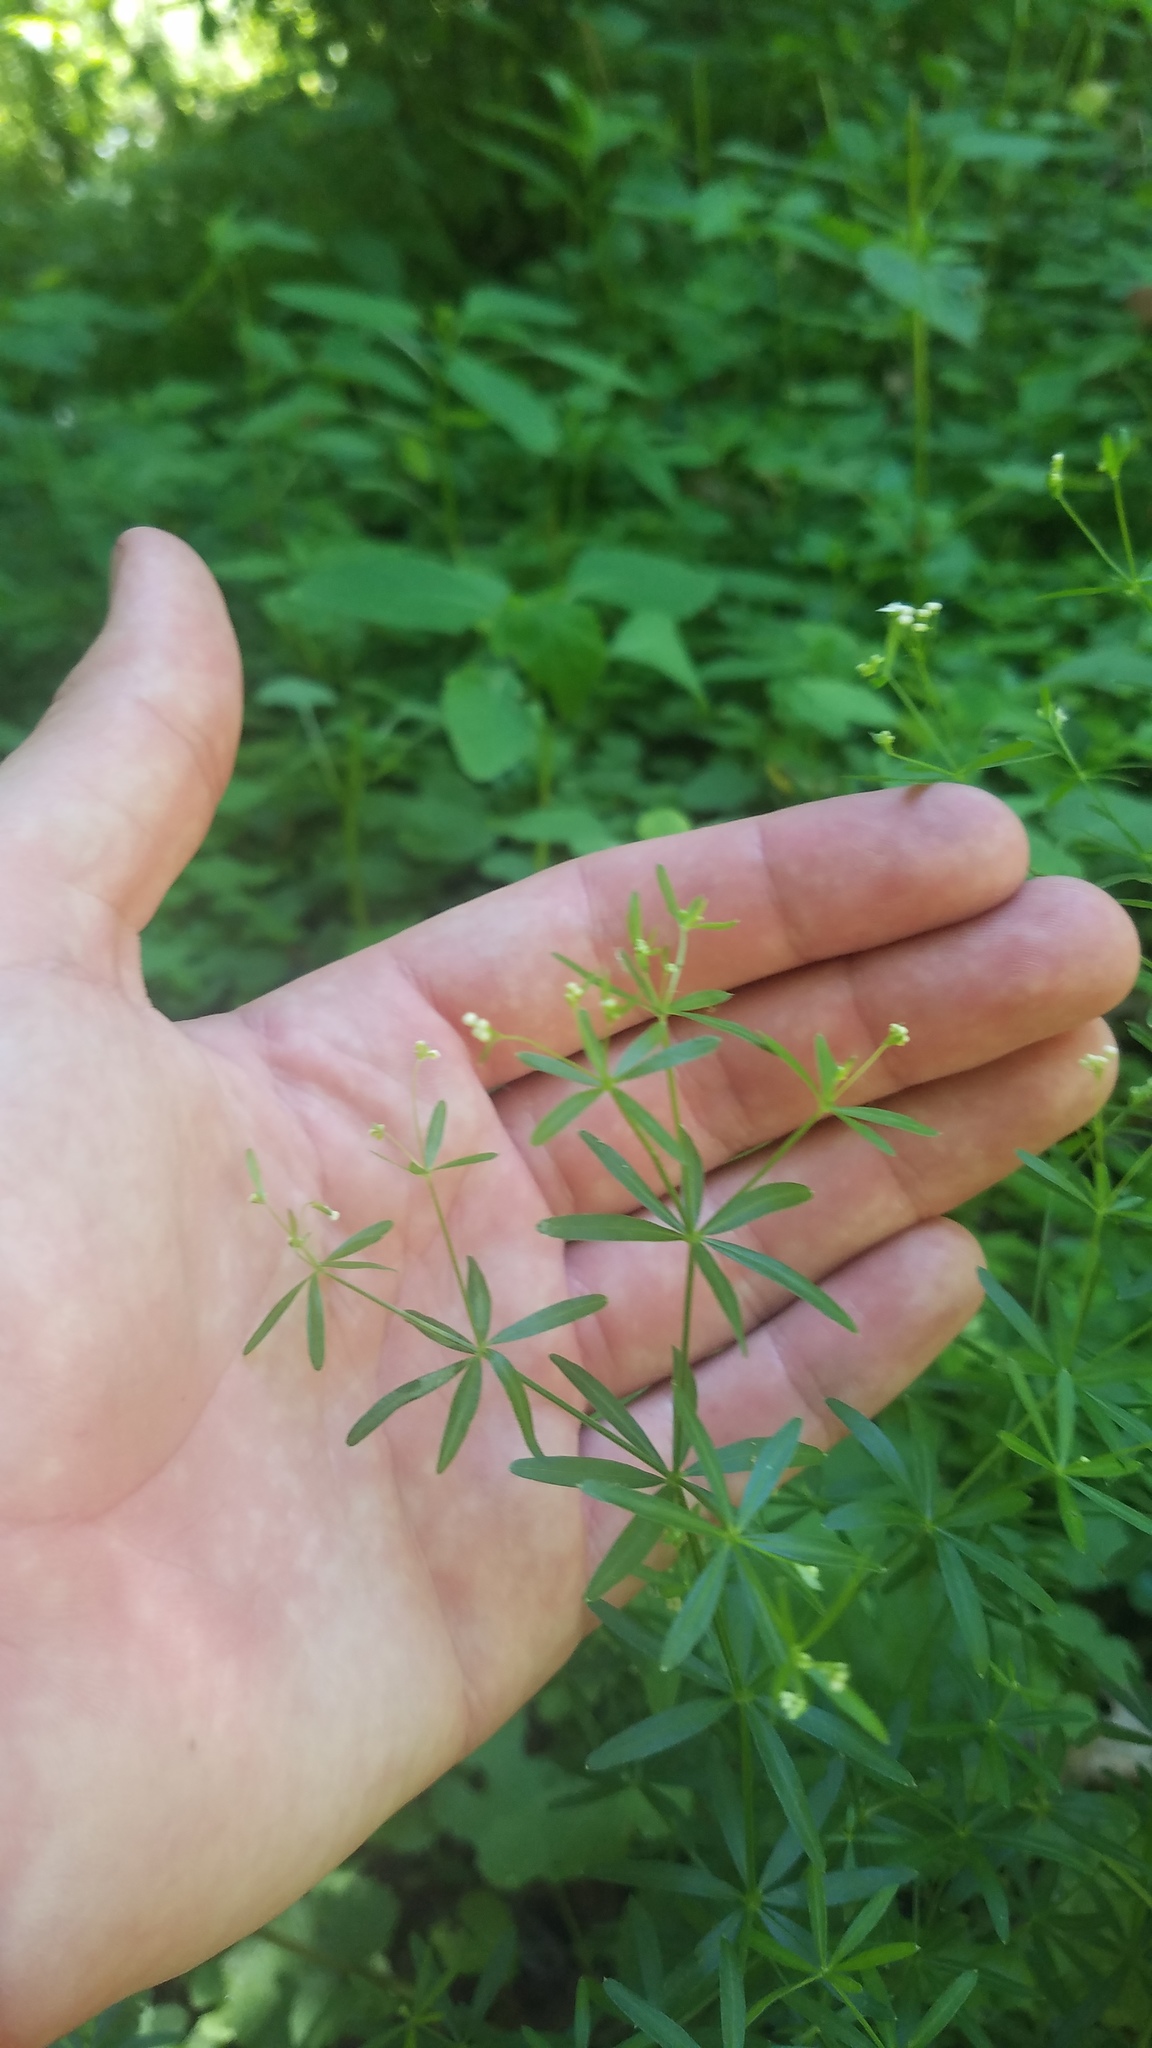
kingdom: Plantae
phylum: Tracheophyta
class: Magnoliopsida
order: Gentianales
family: Rubiaceae
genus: Galium
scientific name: Galium concinnum
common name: Shining bedstraw
